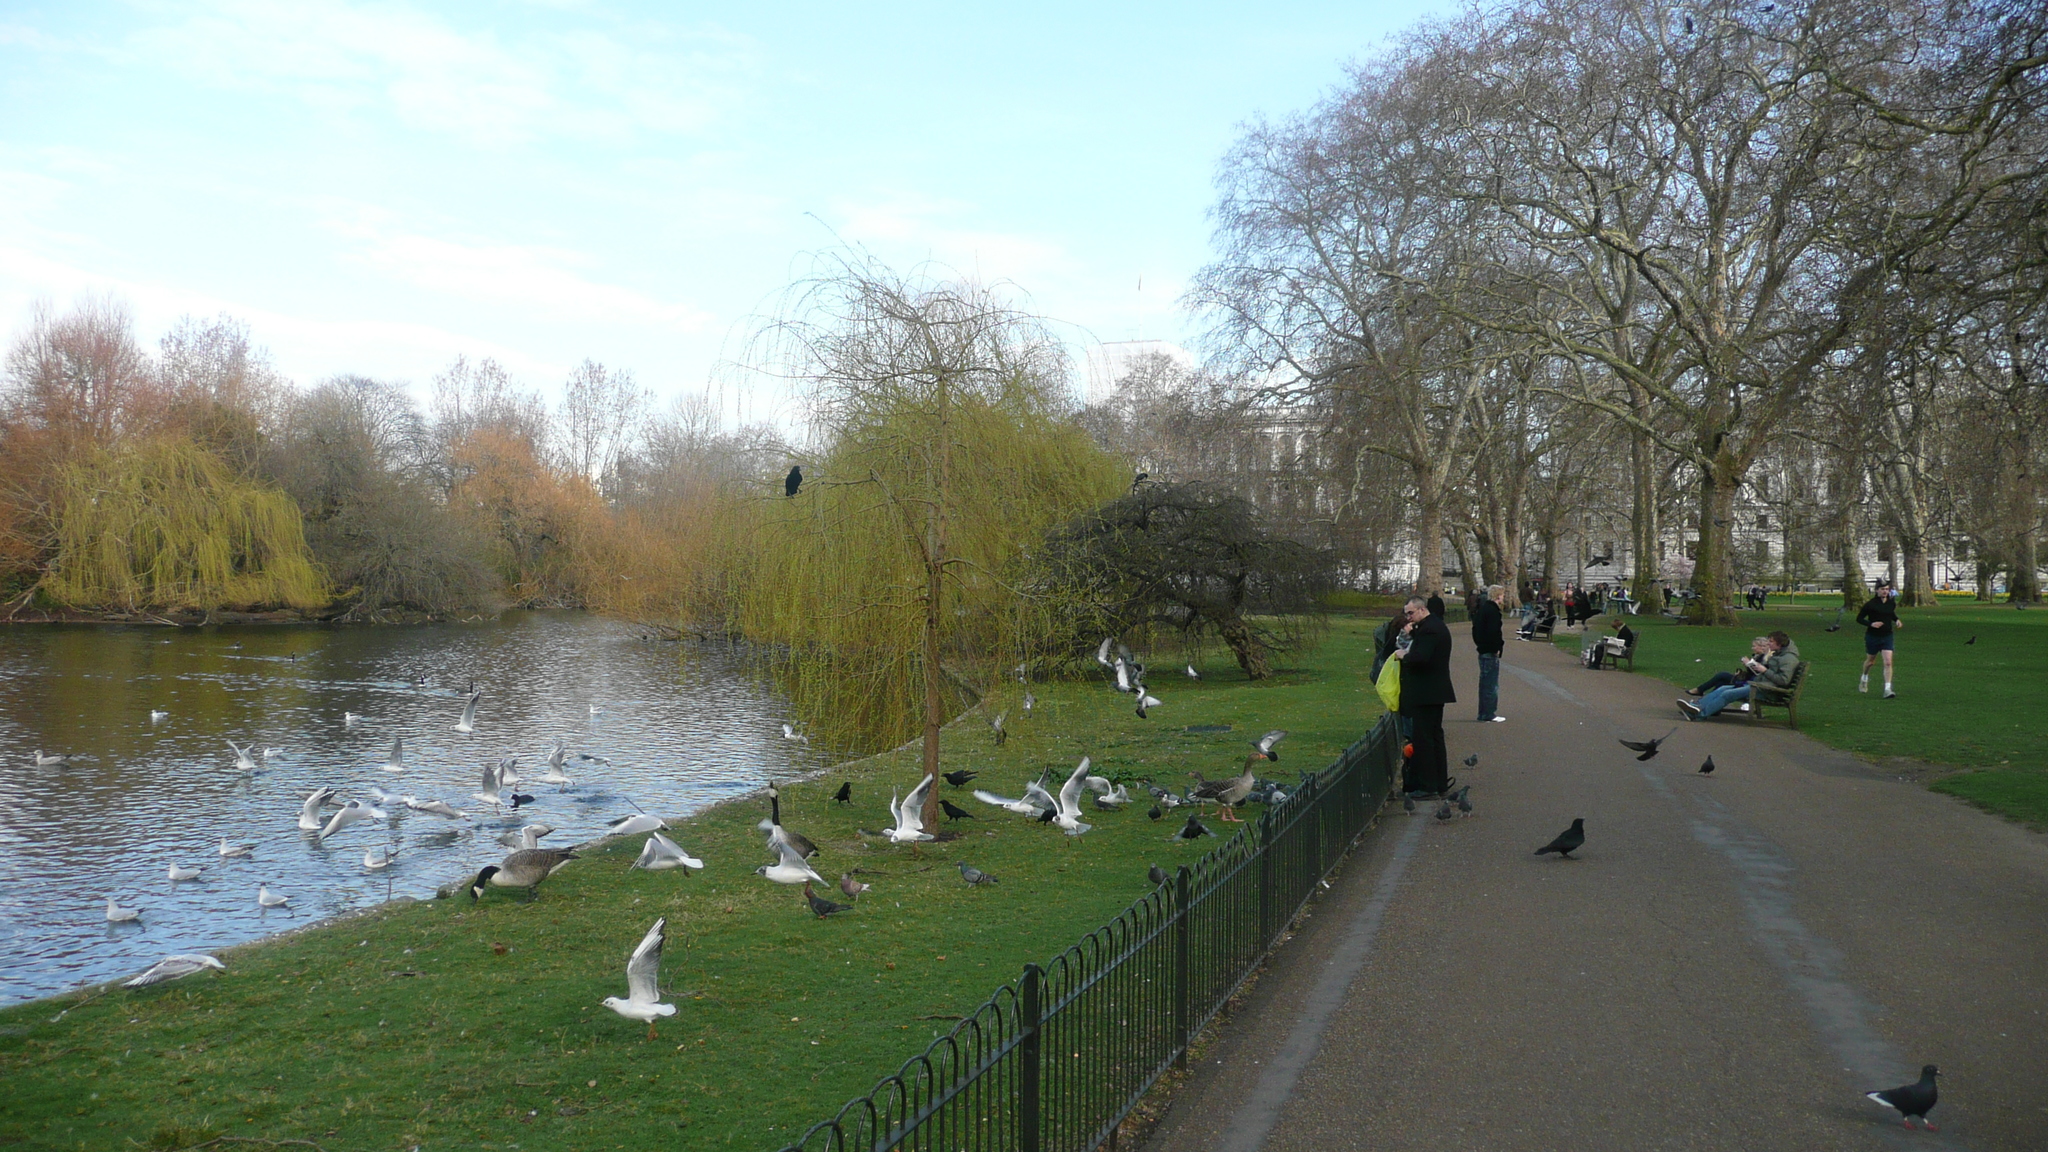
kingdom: Animalia
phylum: Chordata
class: Aves
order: Gruiformes
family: Rallidae
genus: Fulica
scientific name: Fulica atra
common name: Eurasian coot
